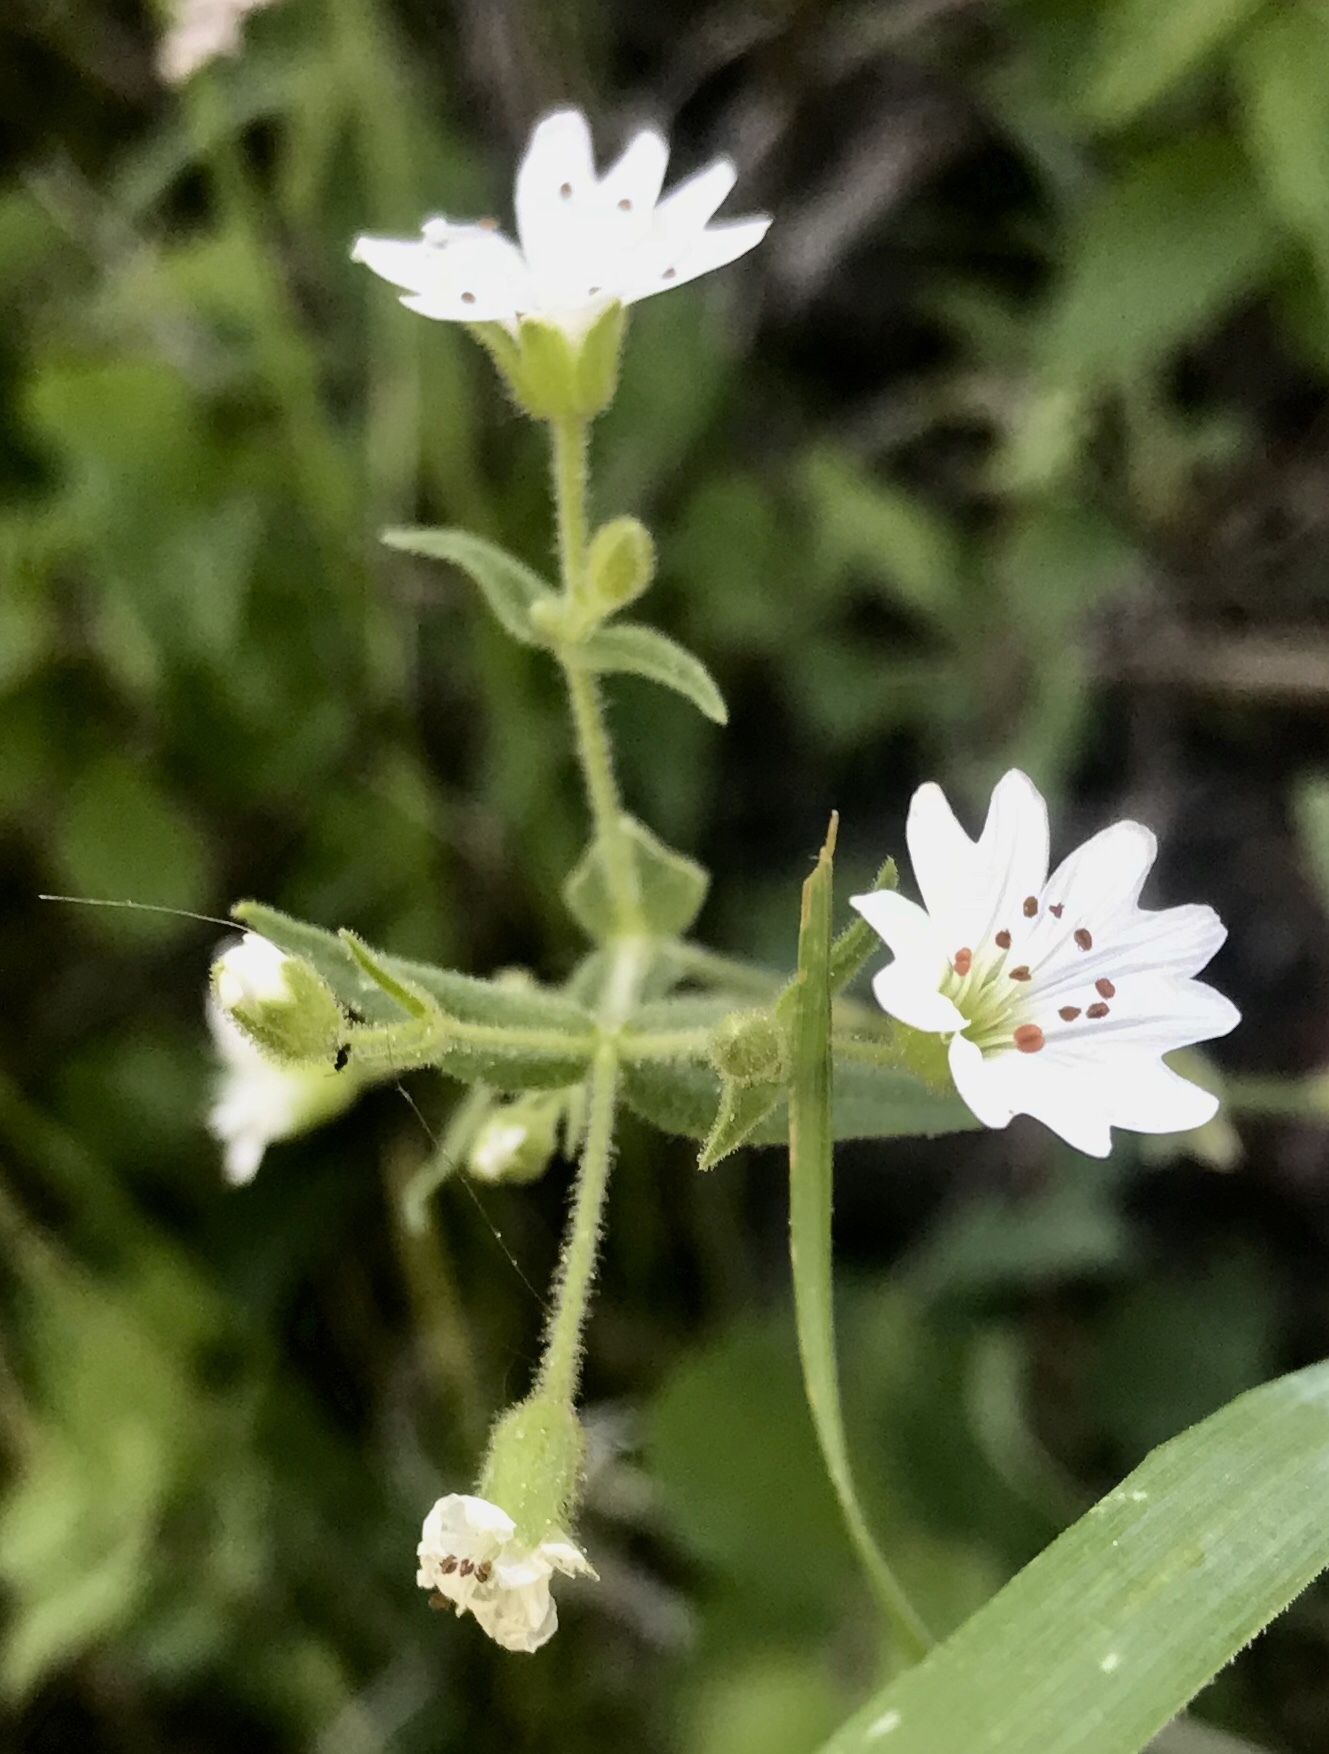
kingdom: Plantae
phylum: Tracheophyta
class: Magnoliopsida
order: Caryophyllales
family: Caryophyllaceae
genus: Schizotechium
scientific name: Schizotechium jamesianum
